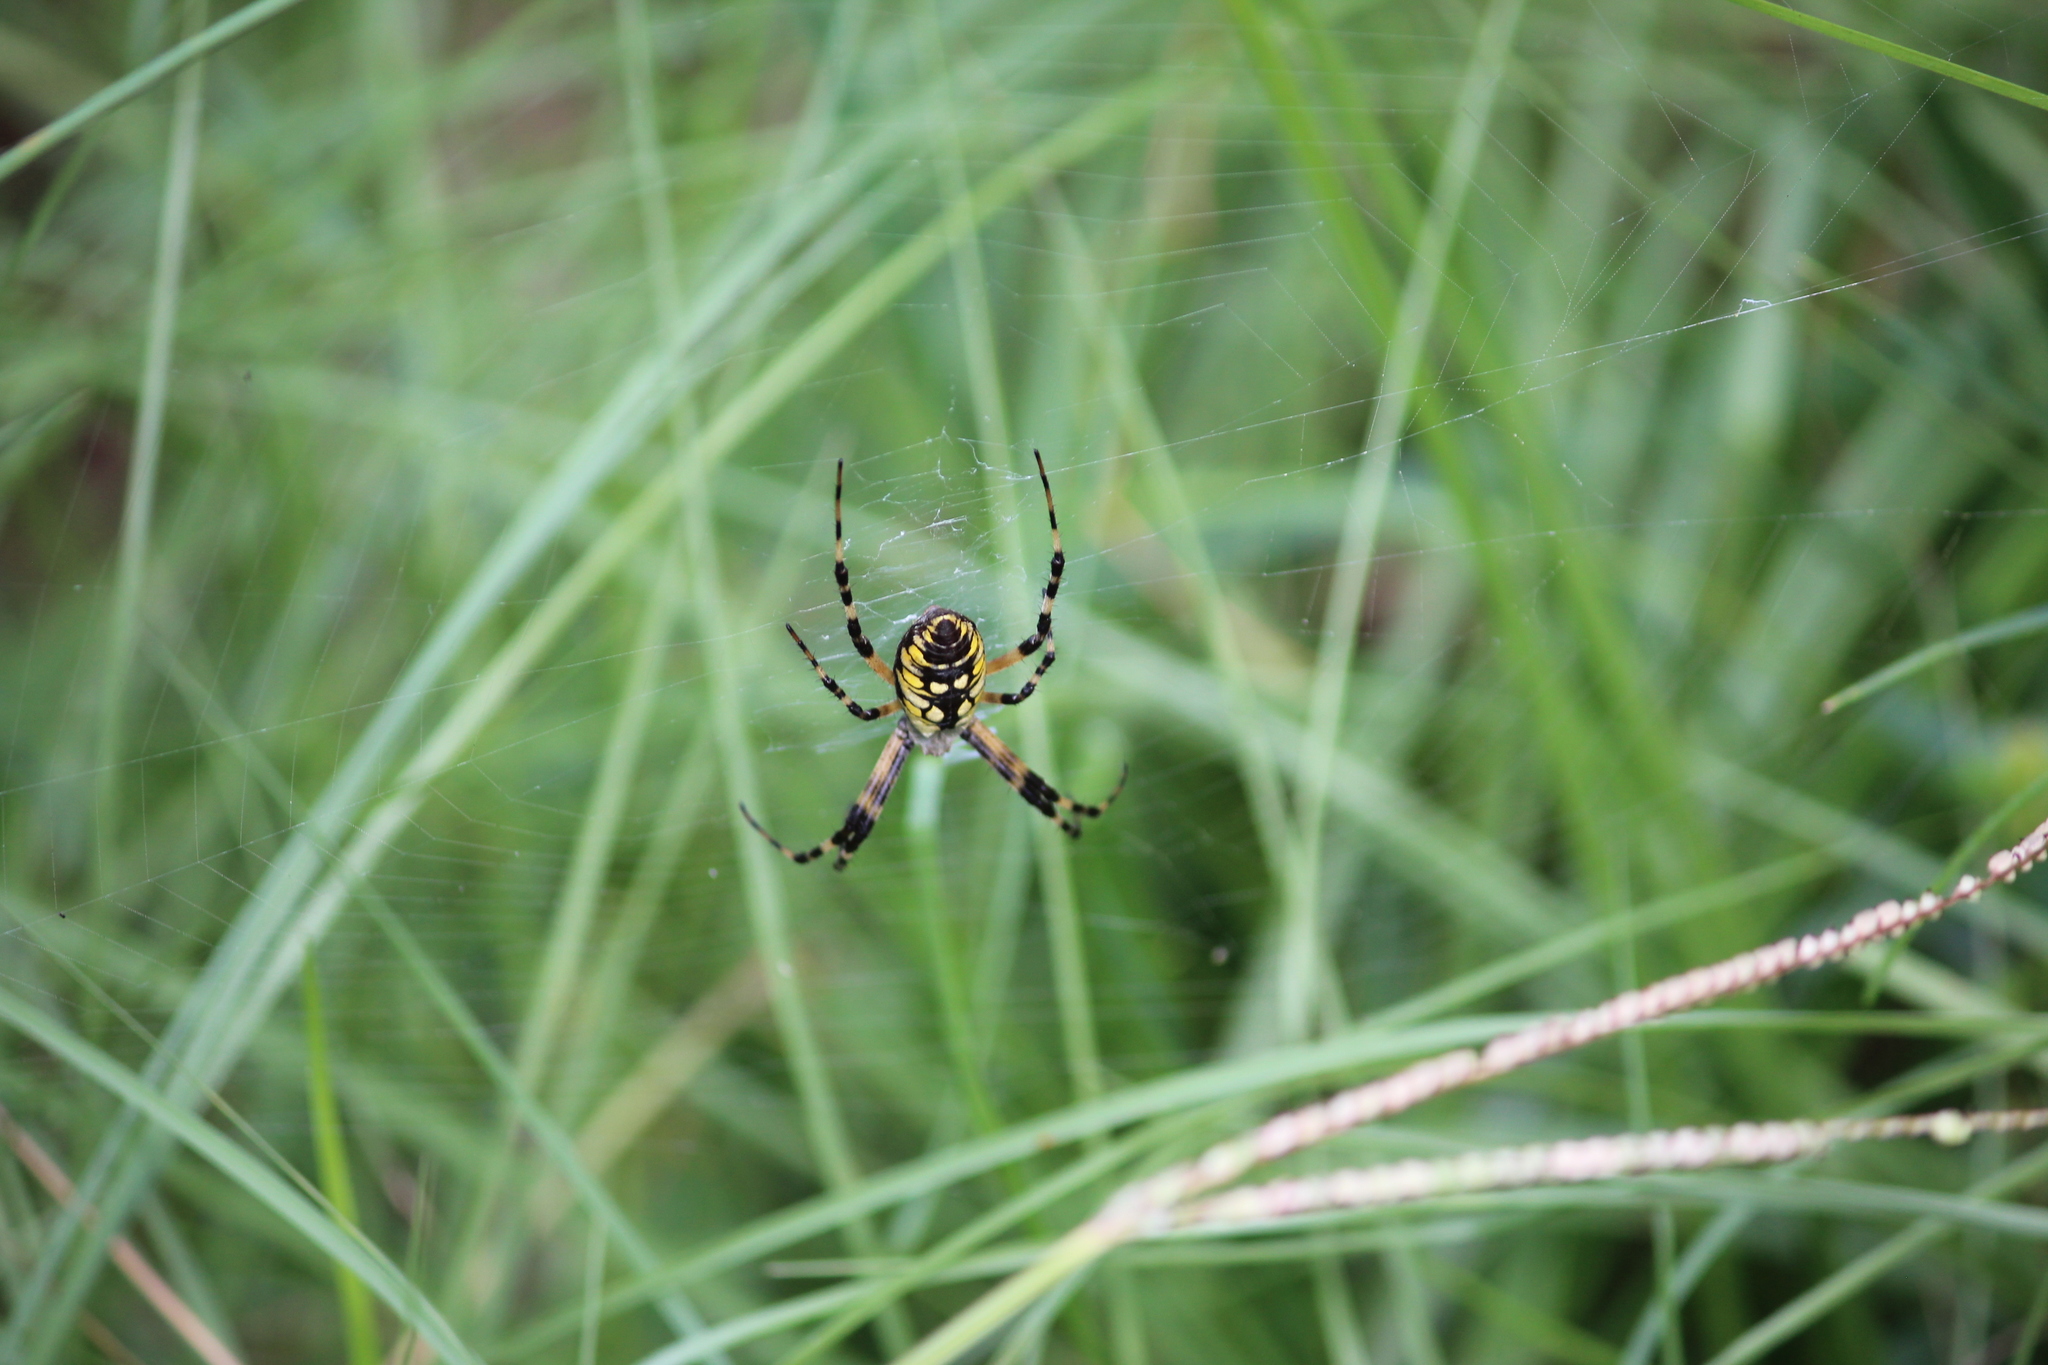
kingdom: Animalia
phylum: Arthropoda
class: Arachnida
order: Araneae
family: Araneidae
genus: Argiope
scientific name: Argiope aurantia
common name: Orb weavers
